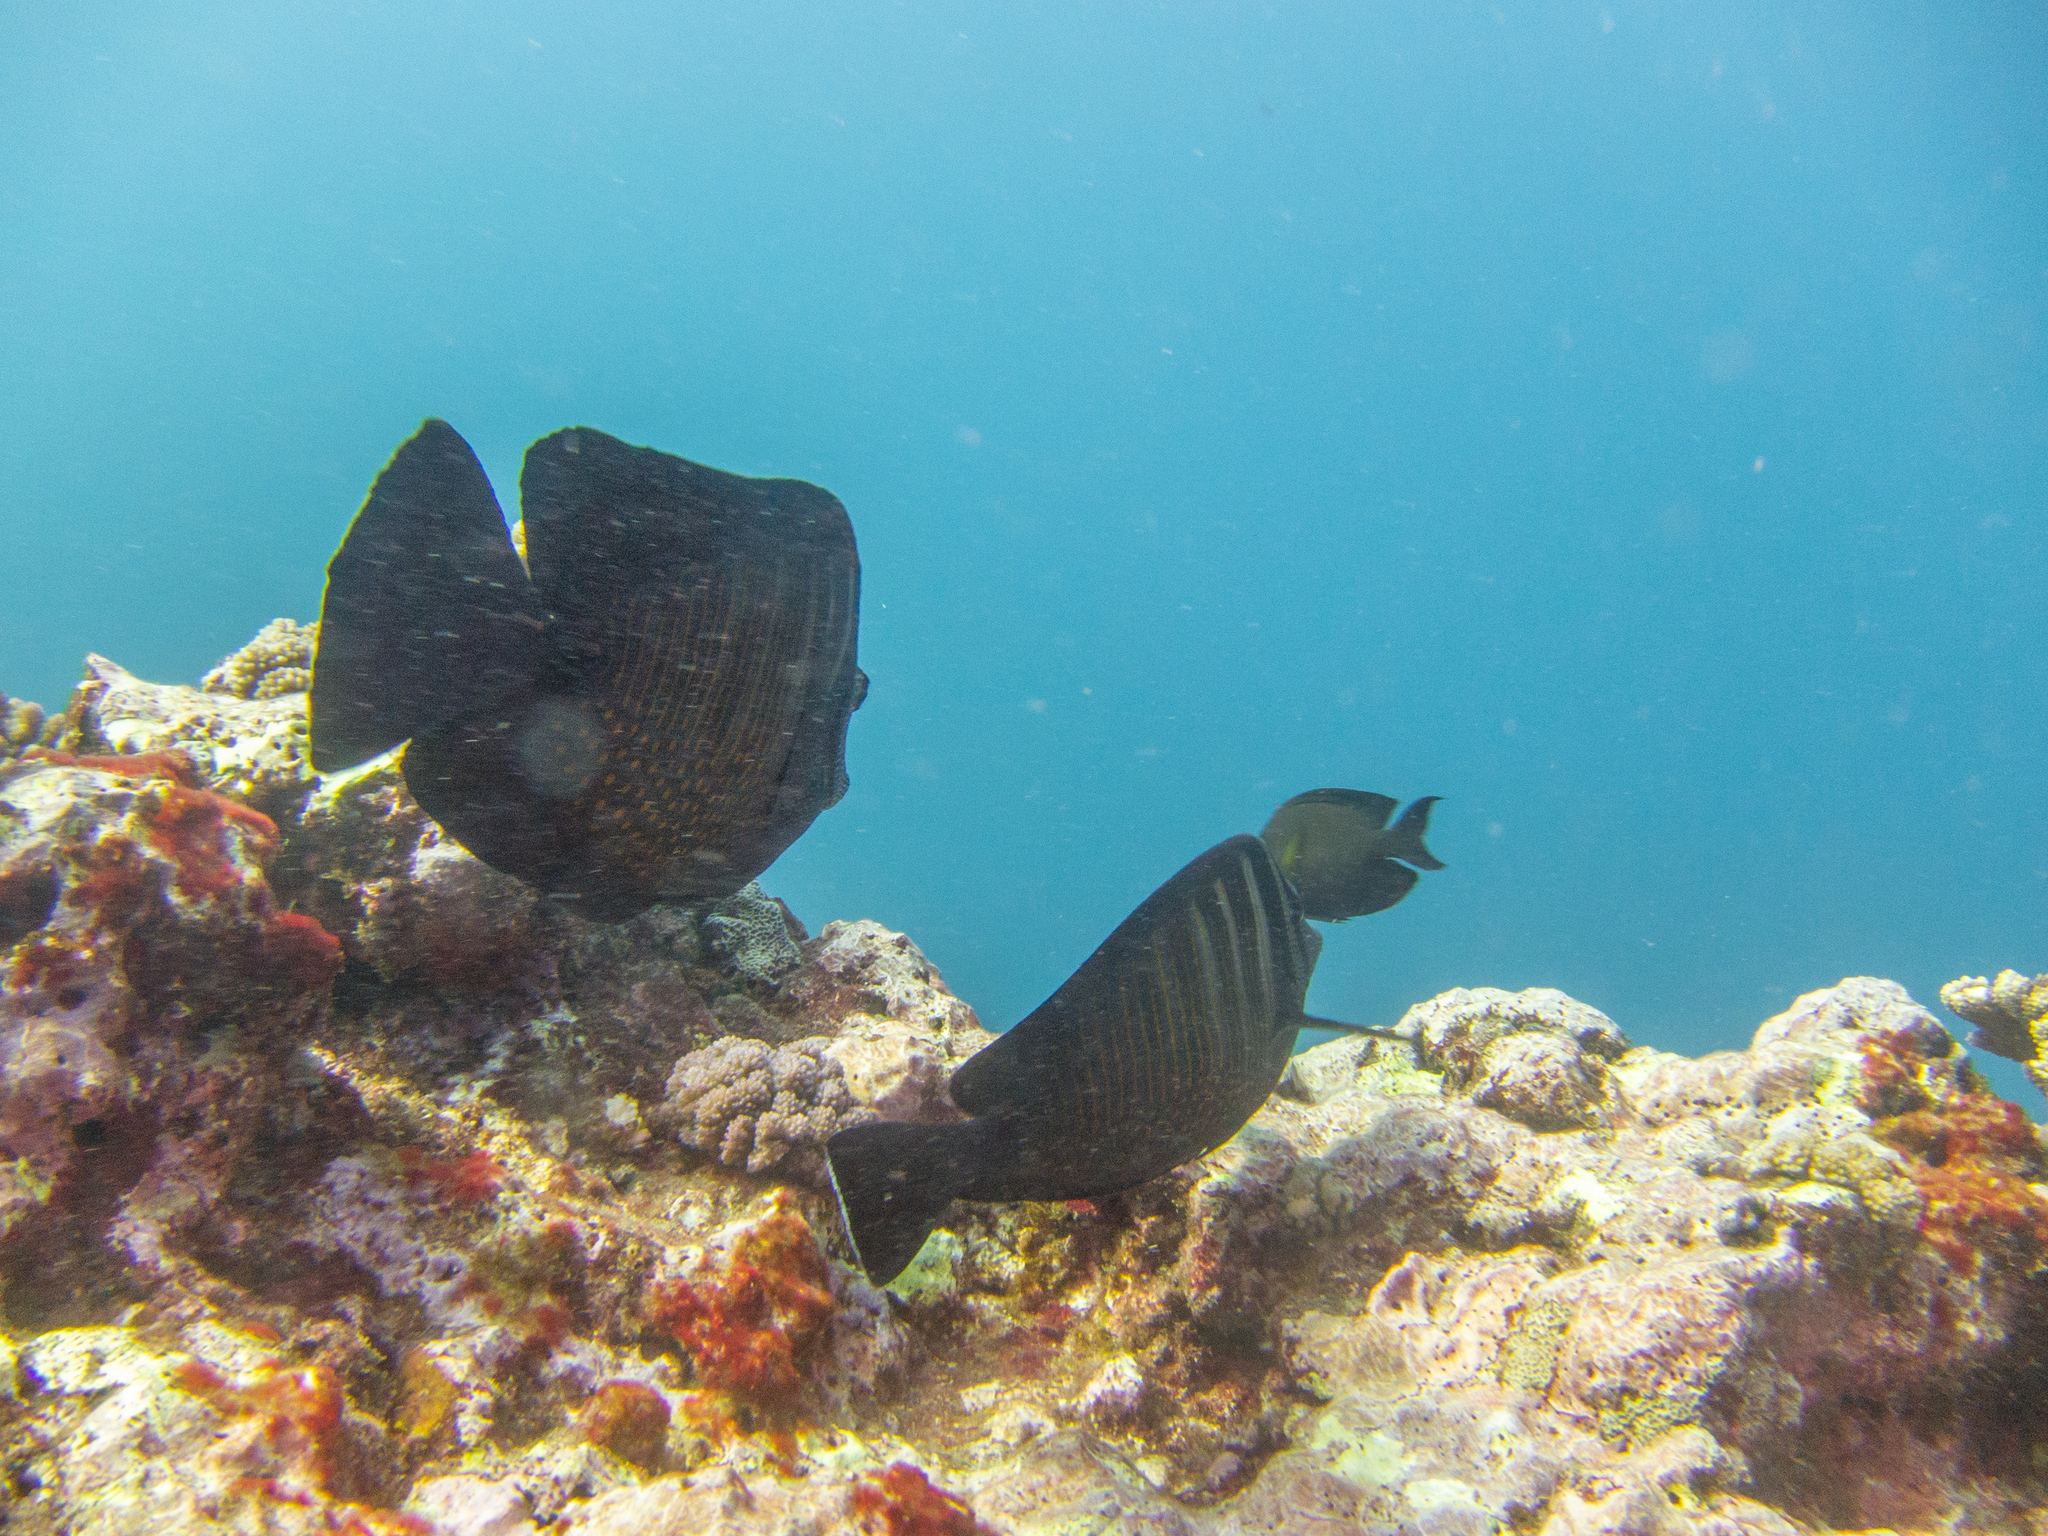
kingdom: Animalia
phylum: Chordata
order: Perciformes
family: Acanthuridae
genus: Zebrasoma
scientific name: Zebrasoma desjardinii
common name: Desjardin's sailfin tang
